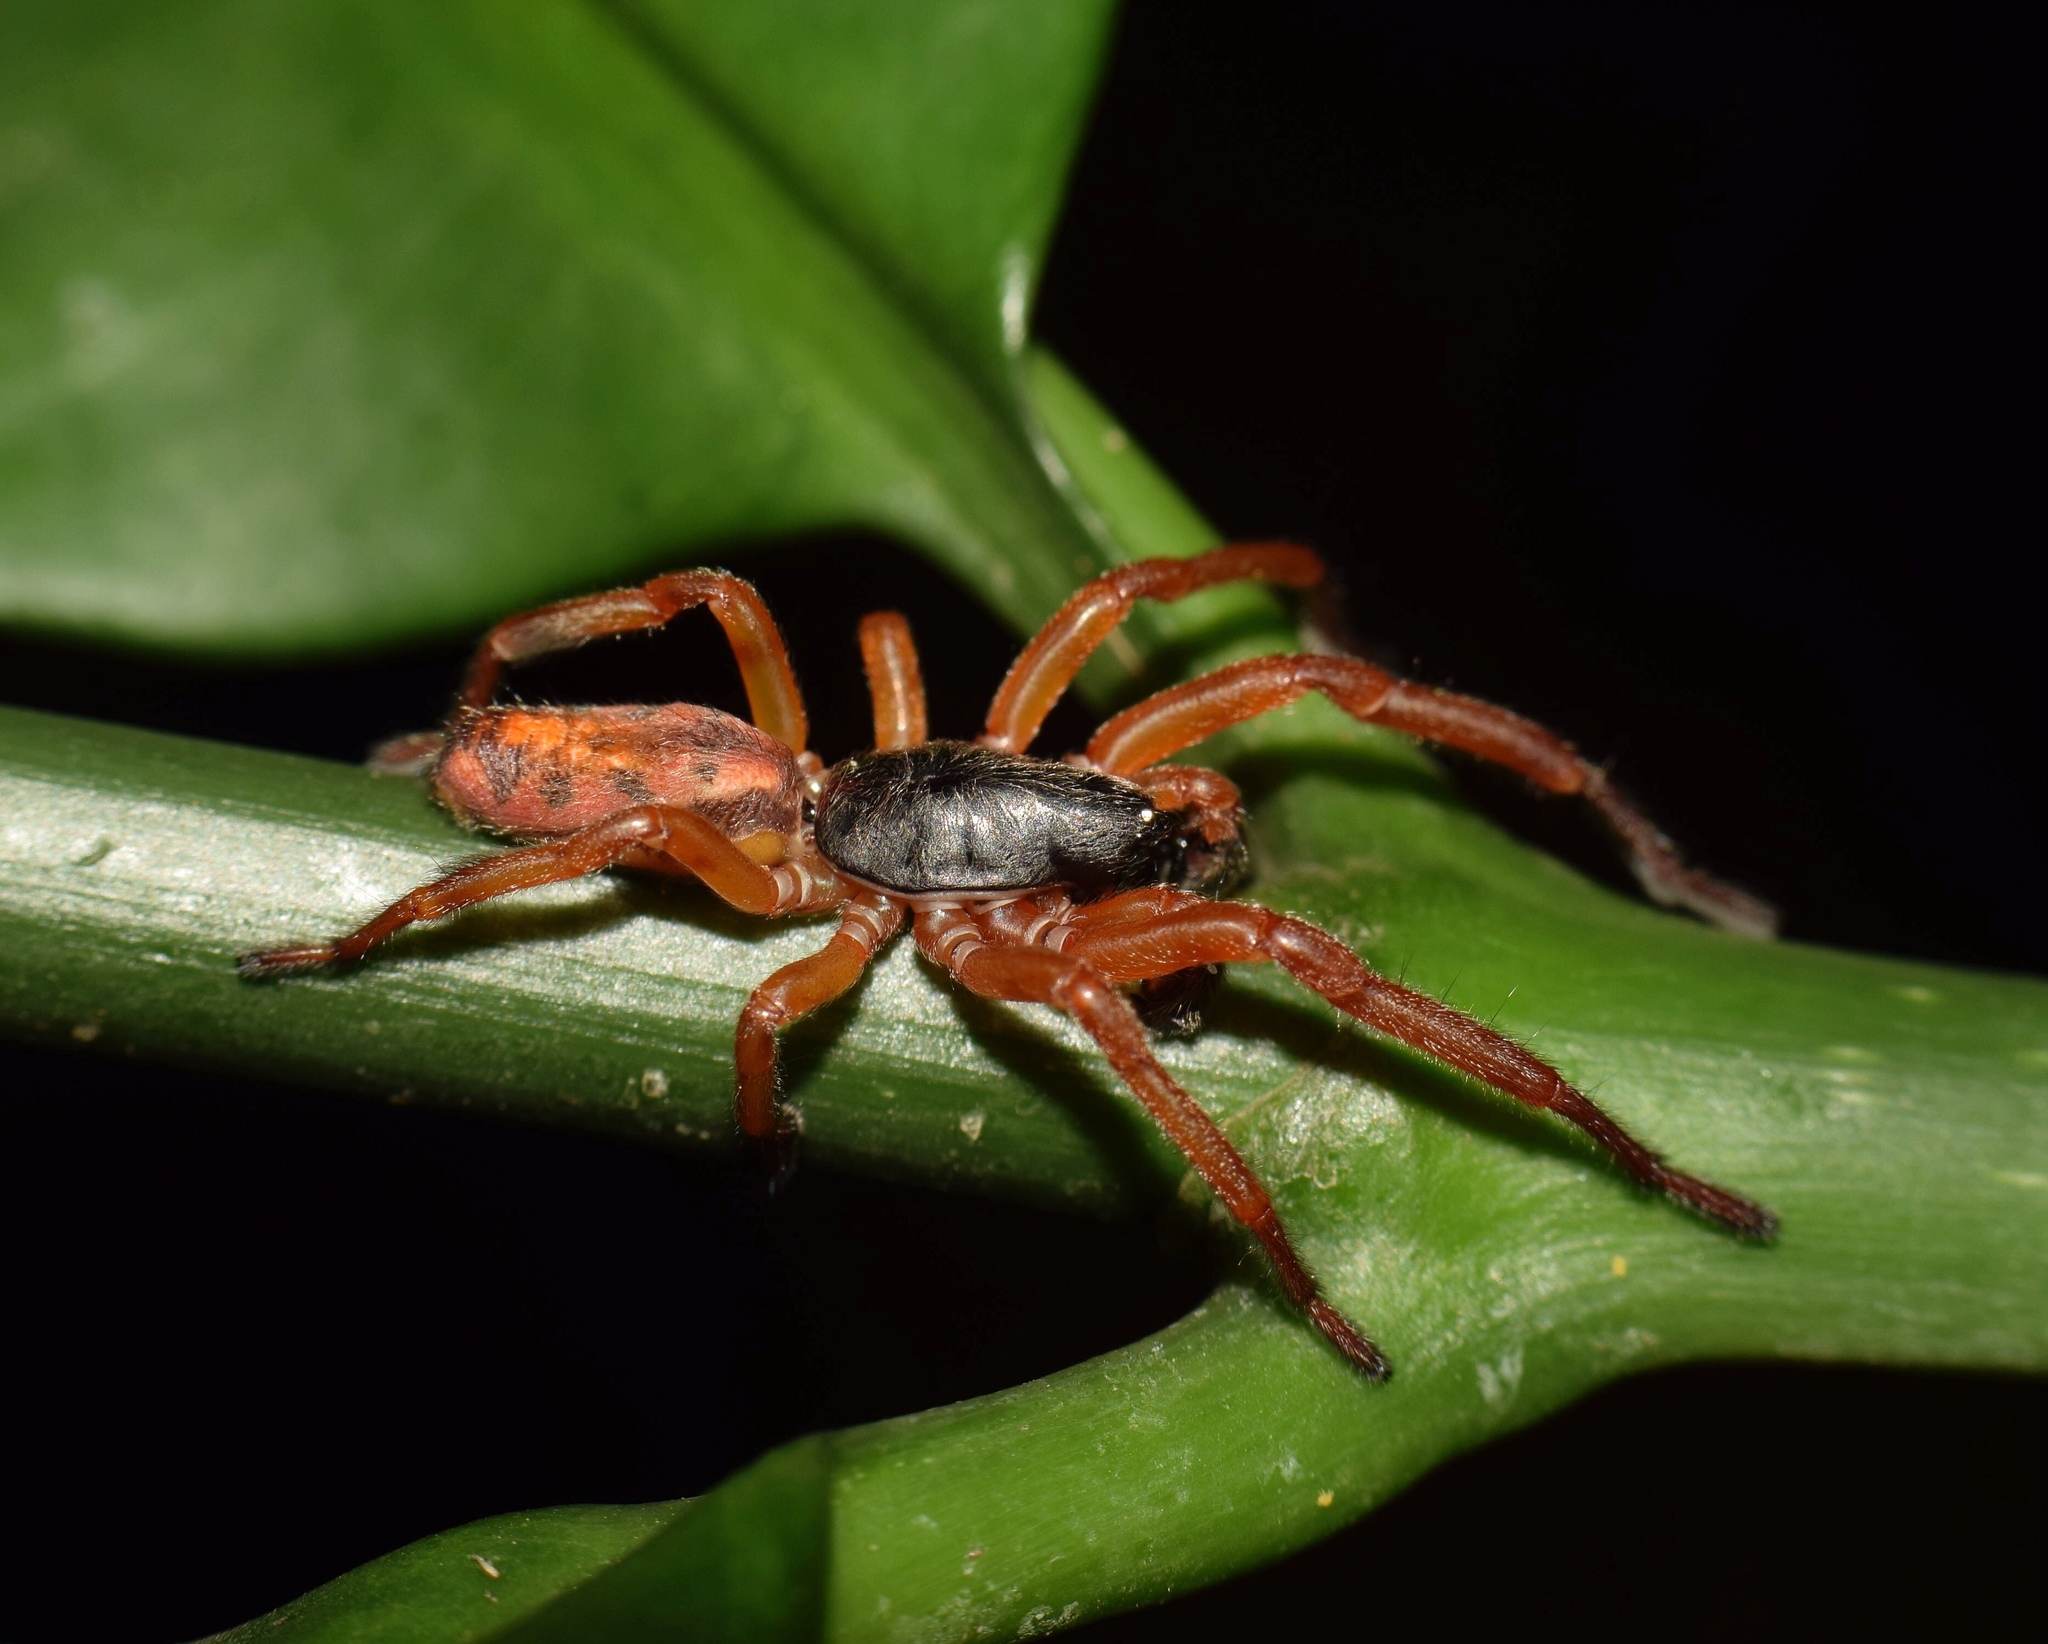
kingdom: Animalia
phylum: Arthropoda
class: Arachnida
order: Araneae
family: Zodariidae
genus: Cicynethus
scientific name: Cicynethus decoratus
